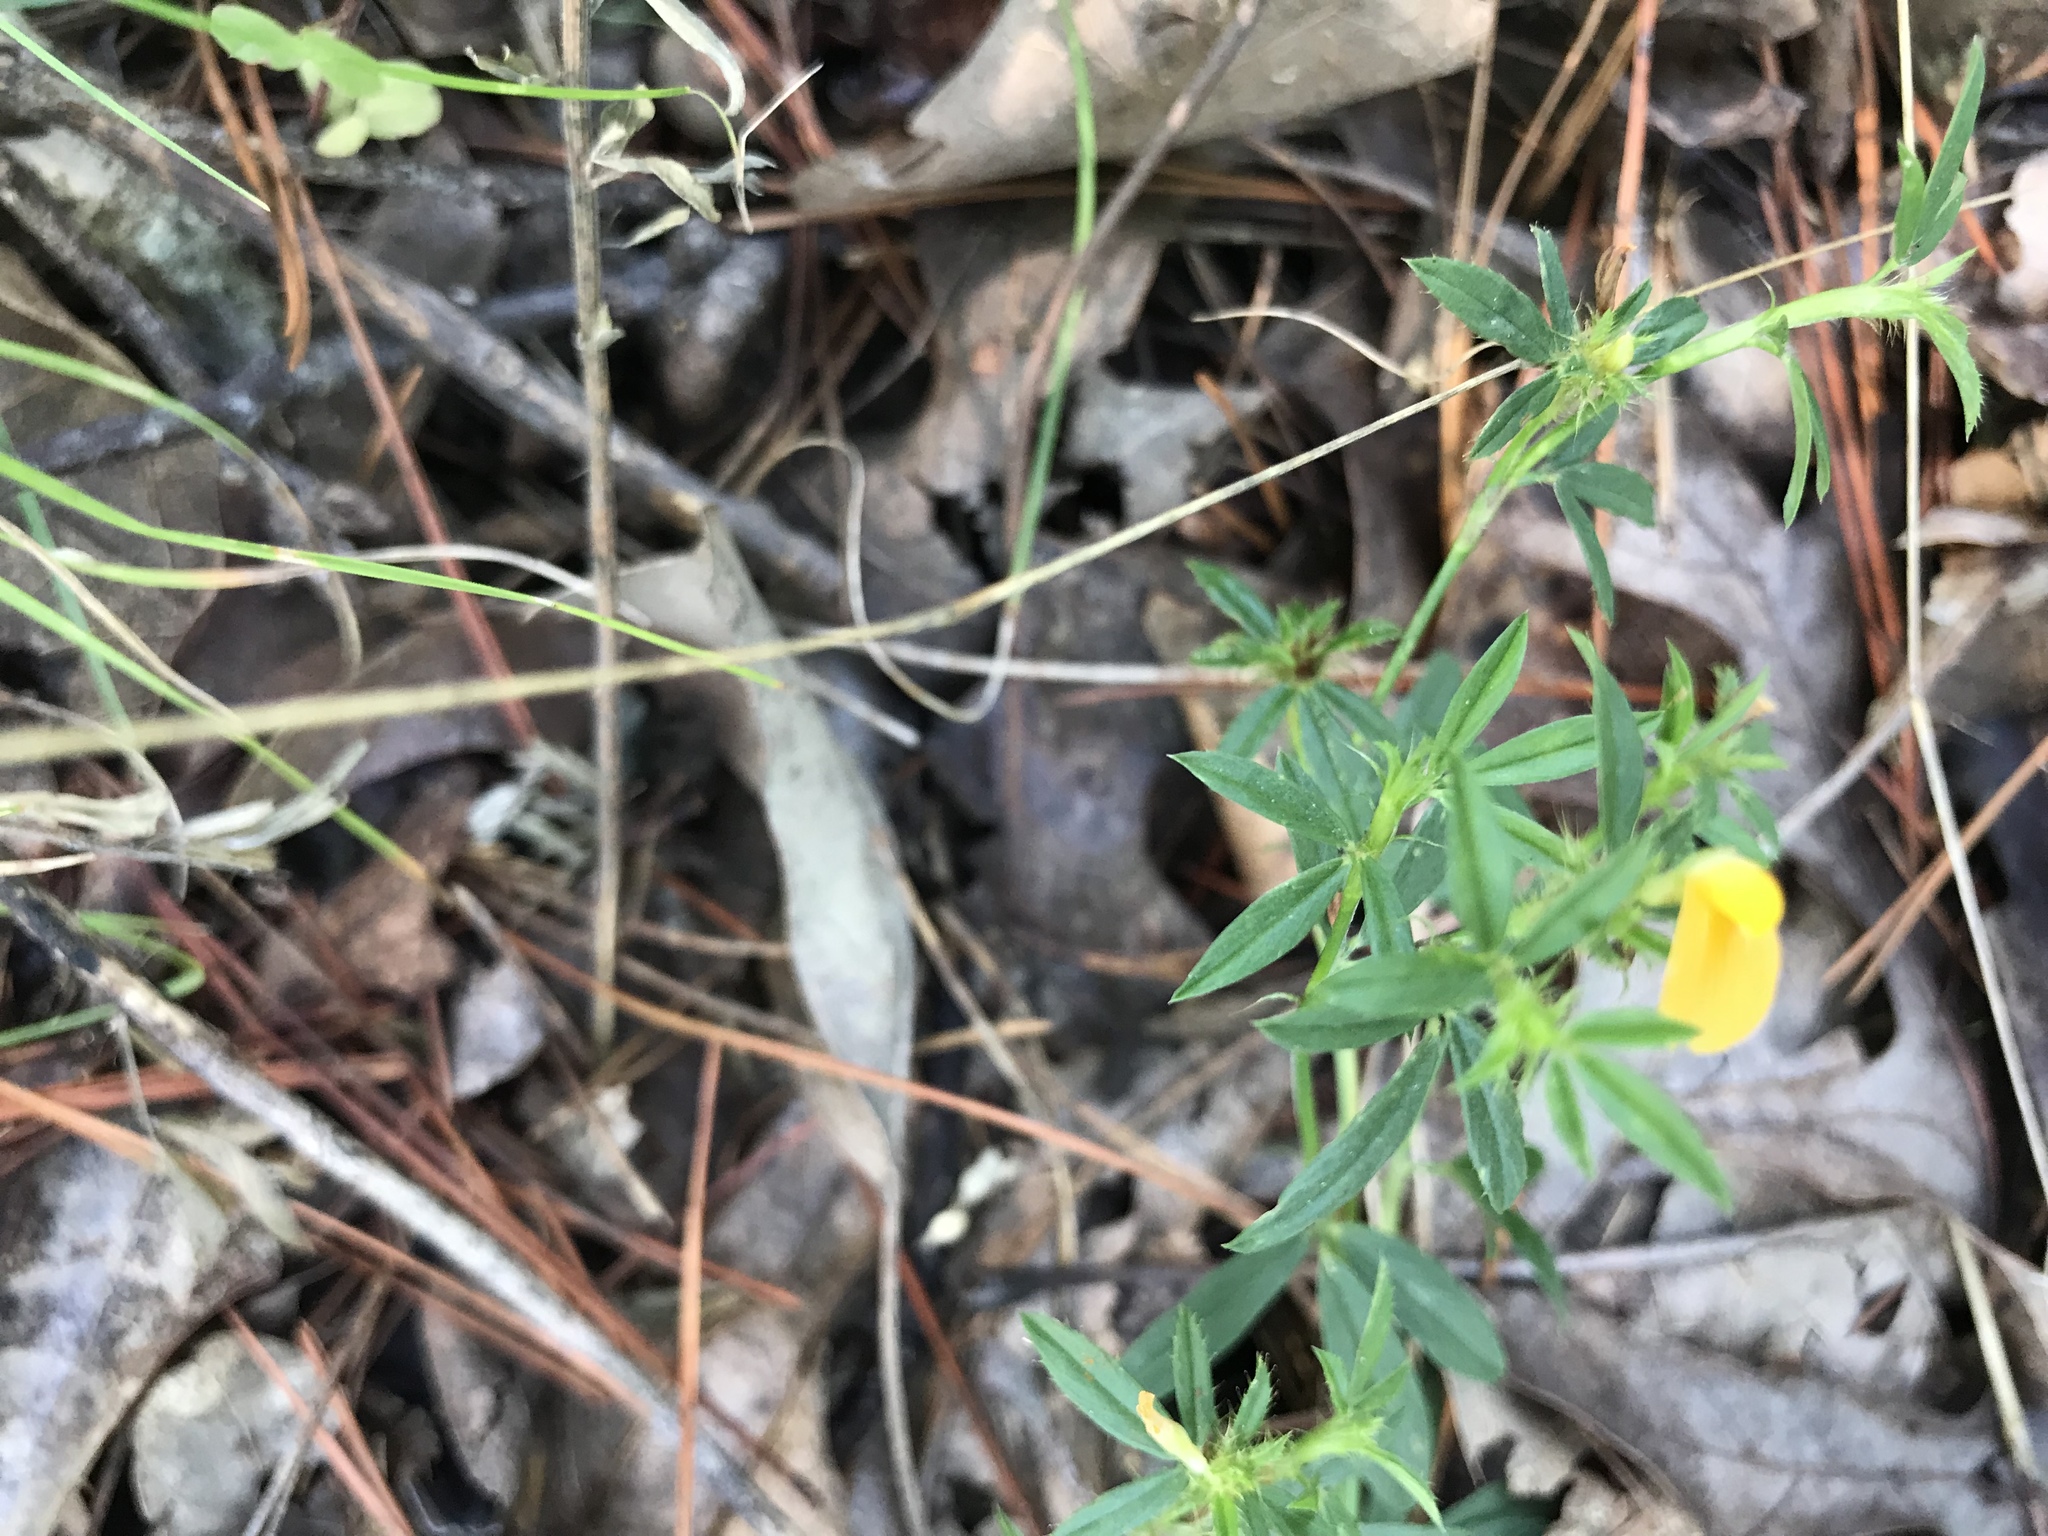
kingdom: Plantae
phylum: Tracheophyta
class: Magnoliopsida
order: Fabales
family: Fabaceae
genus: Stylosanthes
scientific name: Stylosanthes biflora
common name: Two-flower pencil-flower
